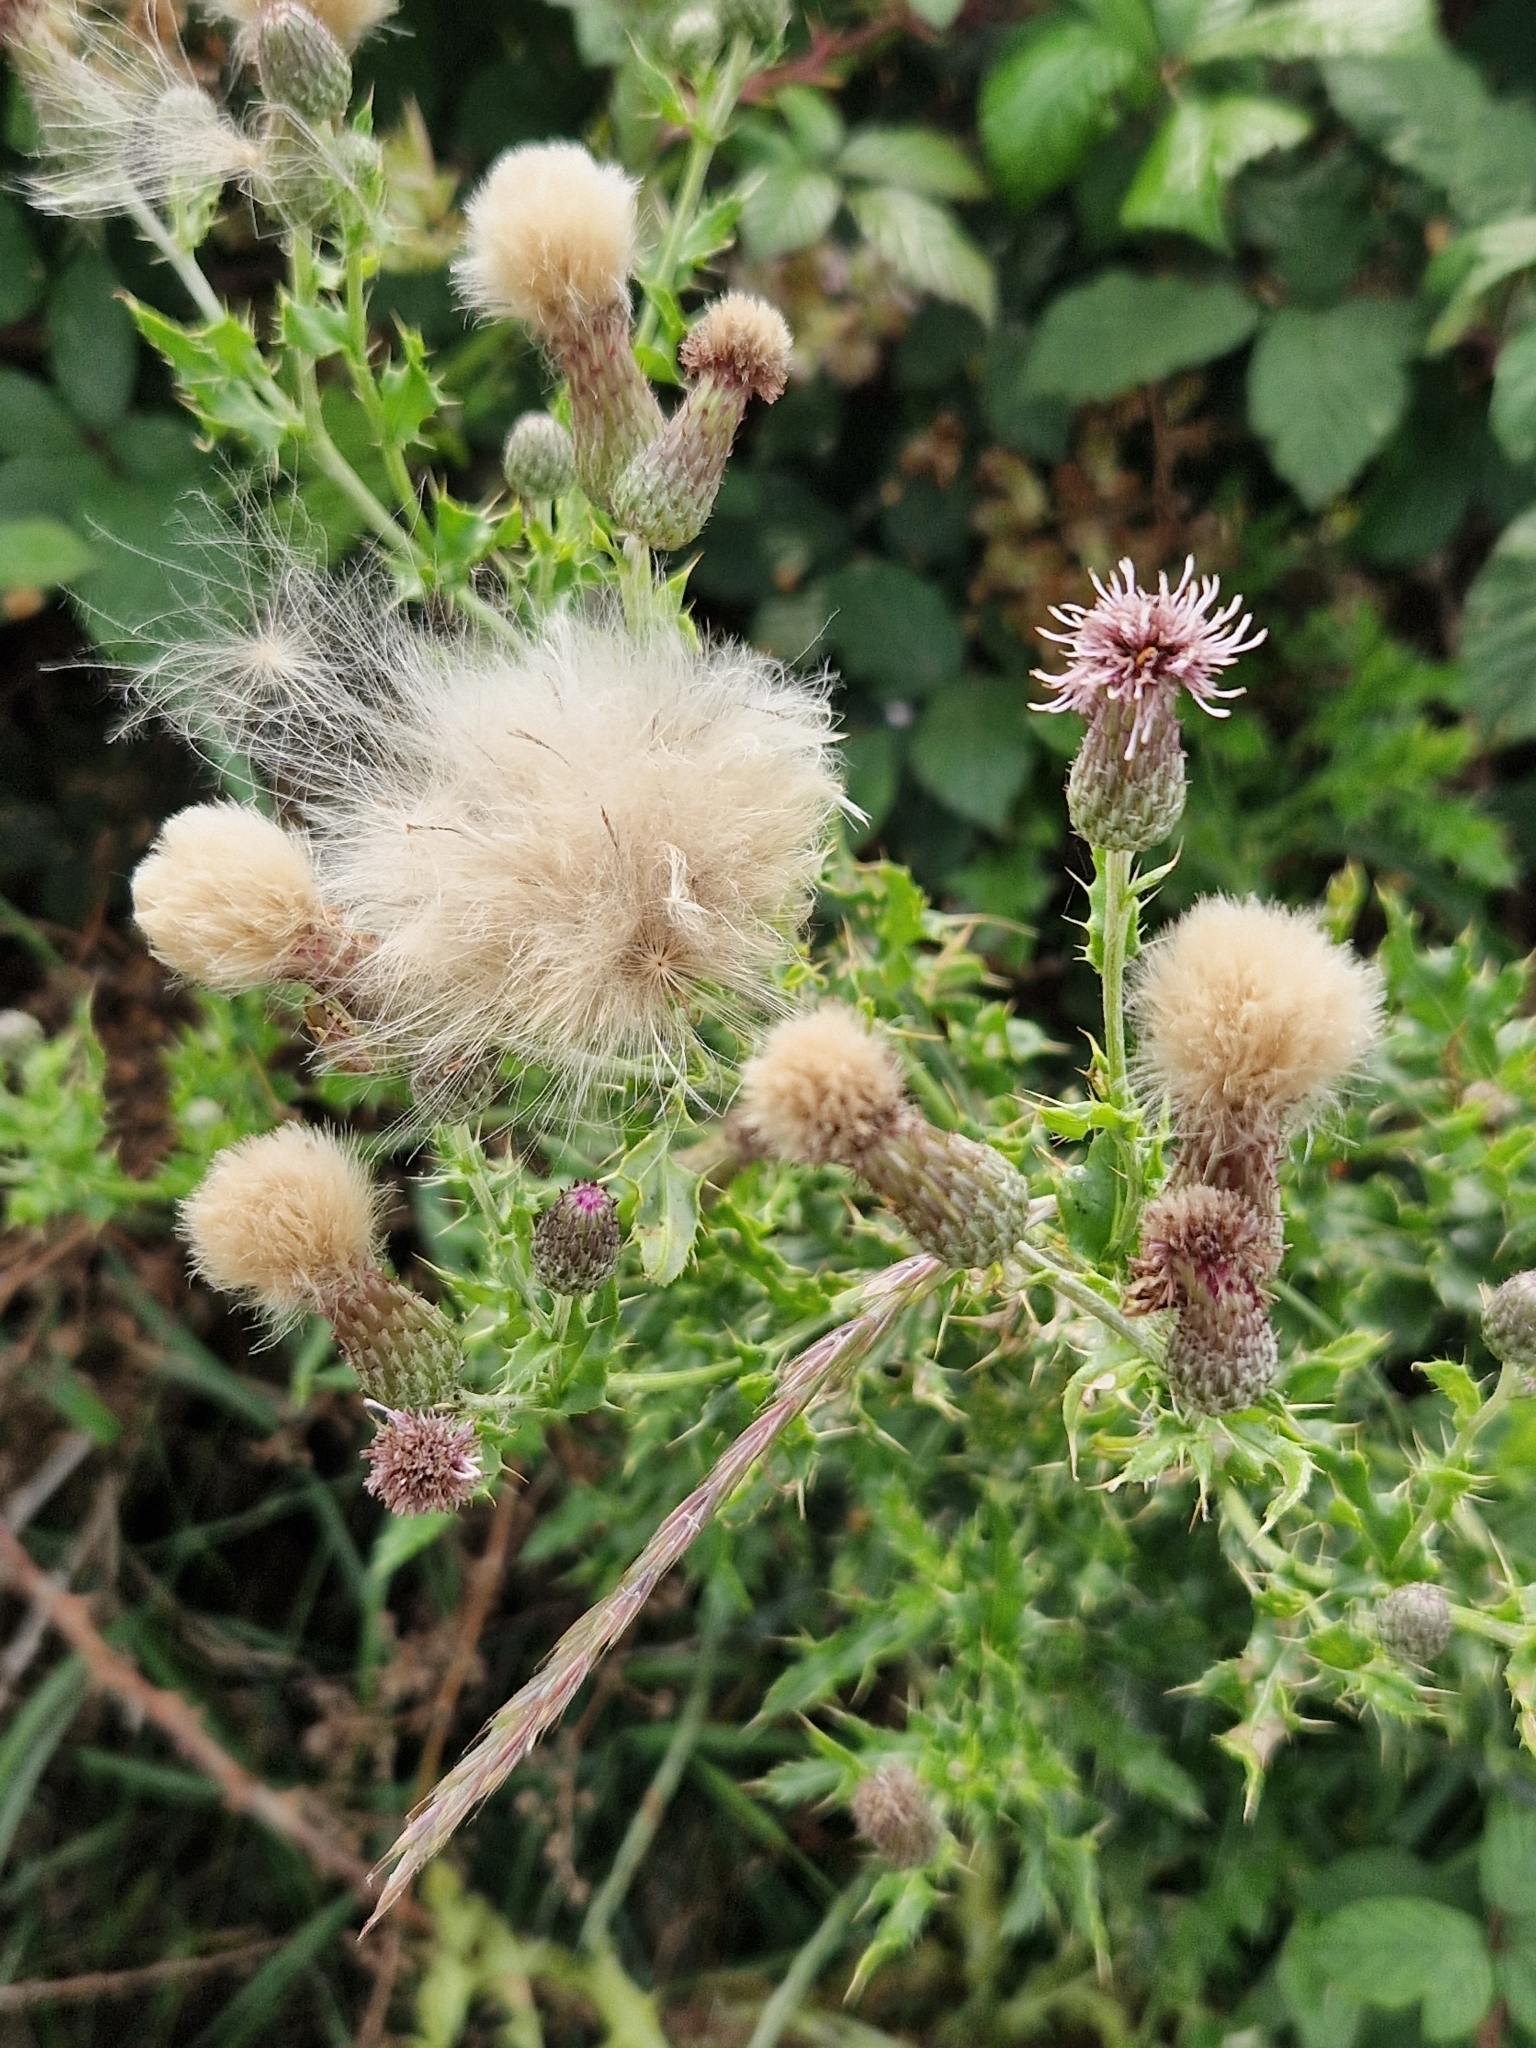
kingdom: Plantae
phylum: Tracheophyta
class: Magnoliopsida
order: Asterales
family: Asteraceae
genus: Cirsium
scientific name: Cirsium arvense
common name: Creeping thistle
